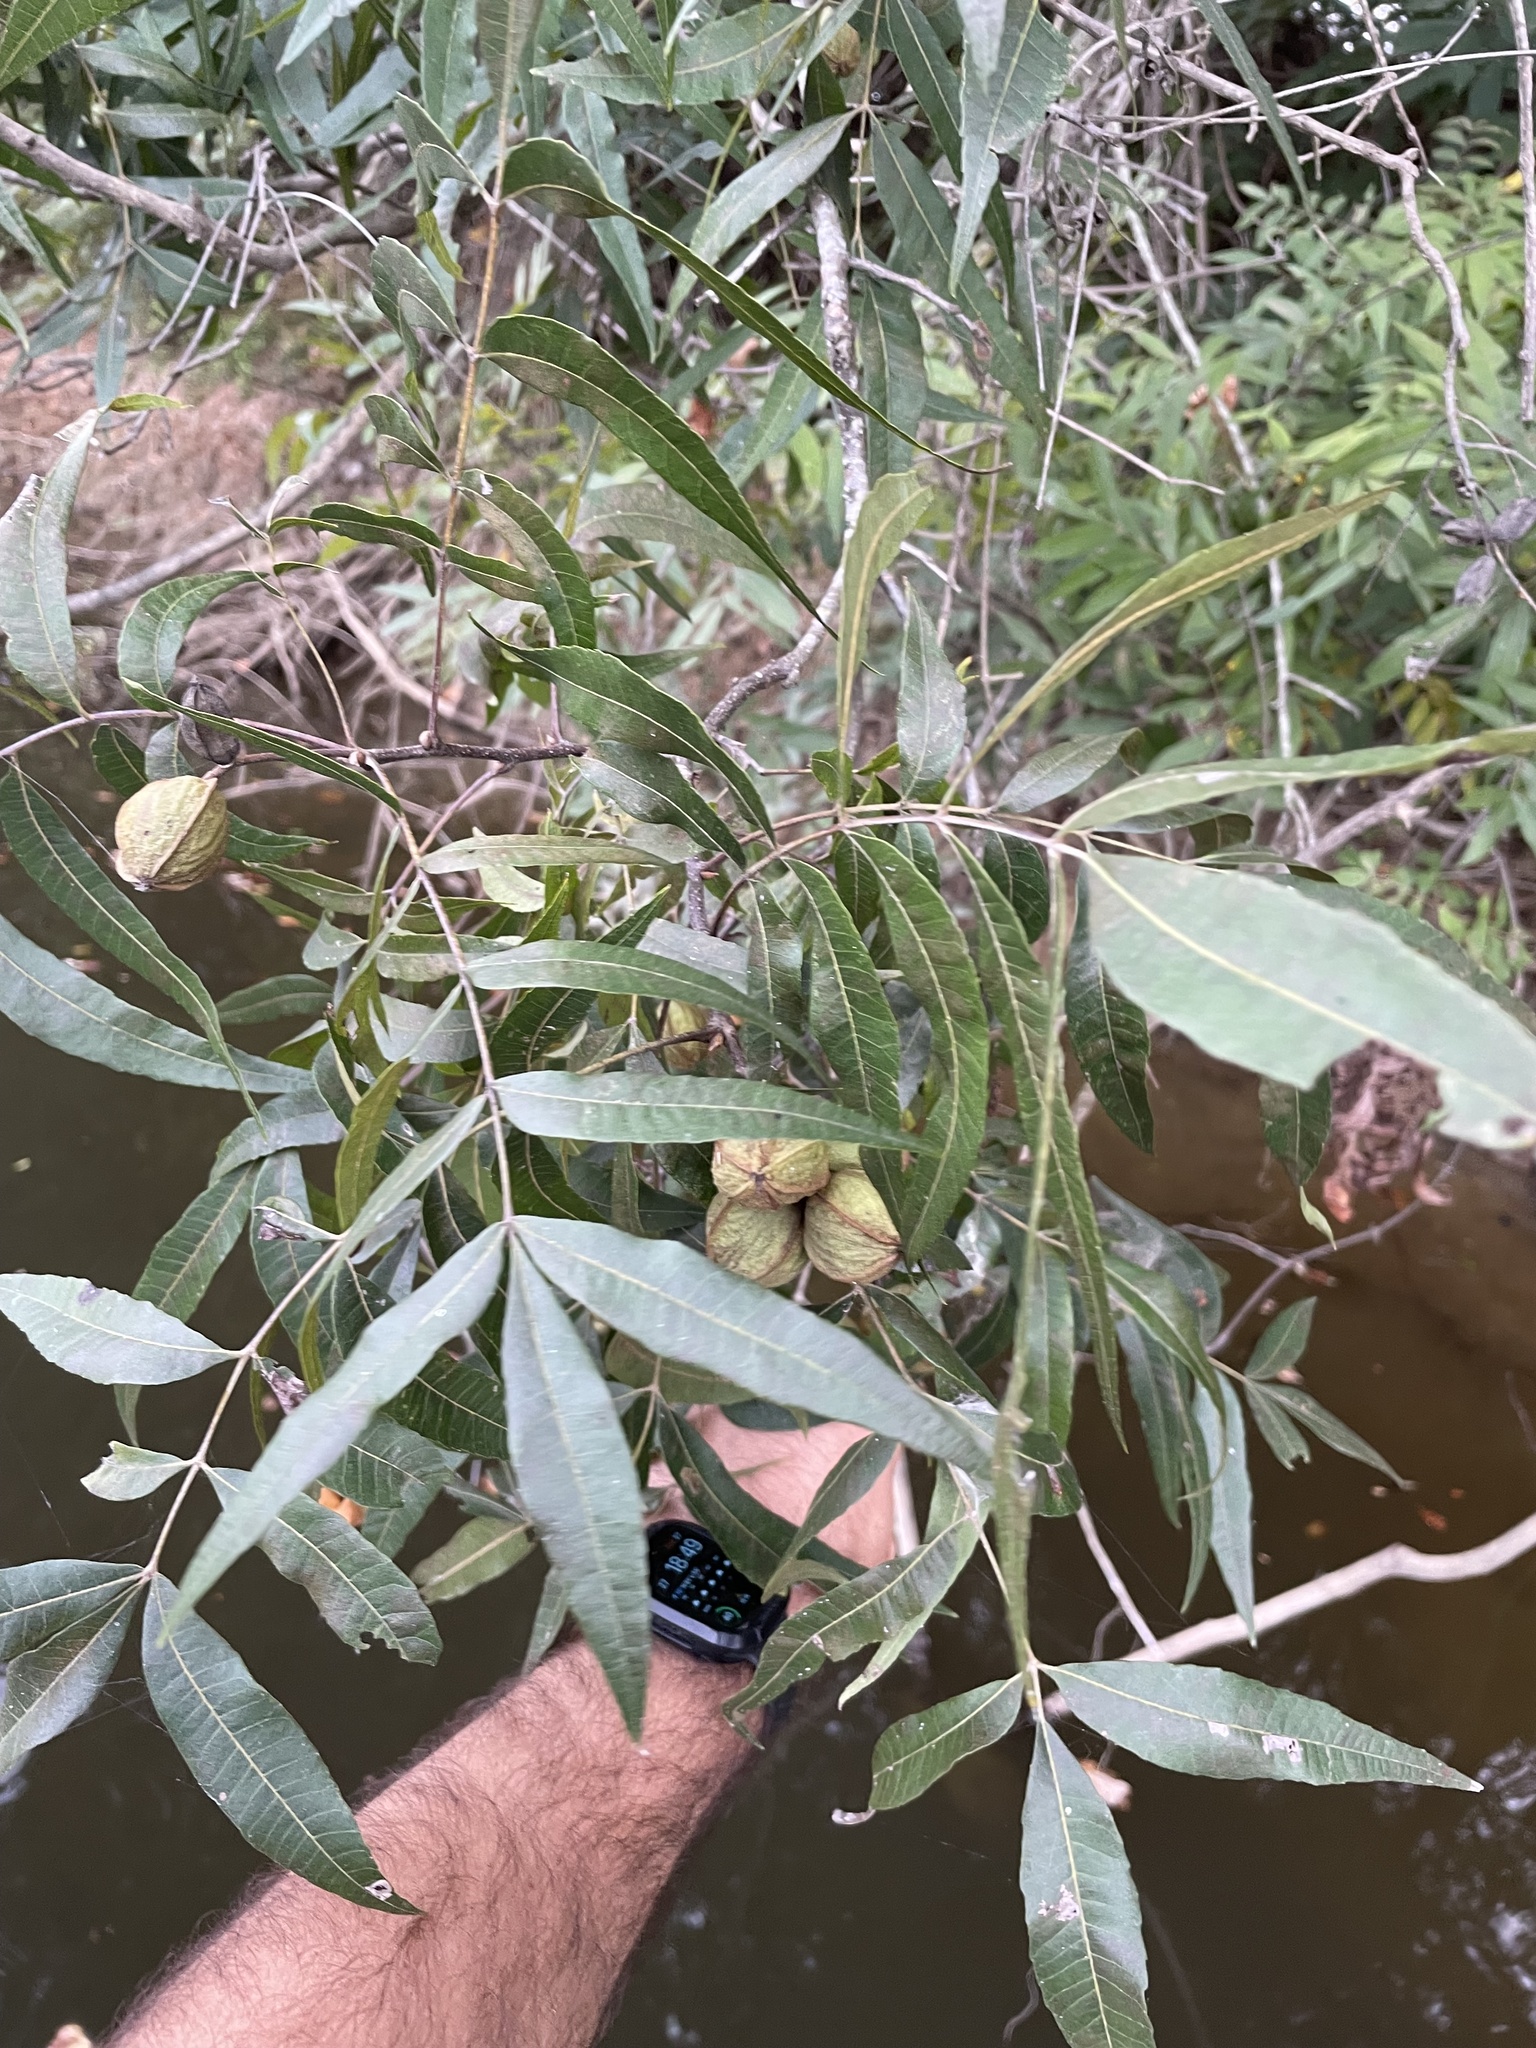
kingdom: Plantae
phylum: Tracheophyta
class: Magnoliopsida
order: Fagales
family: Juglandaceae
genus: Carya
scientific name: Carya aquatica
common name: Water hickory
